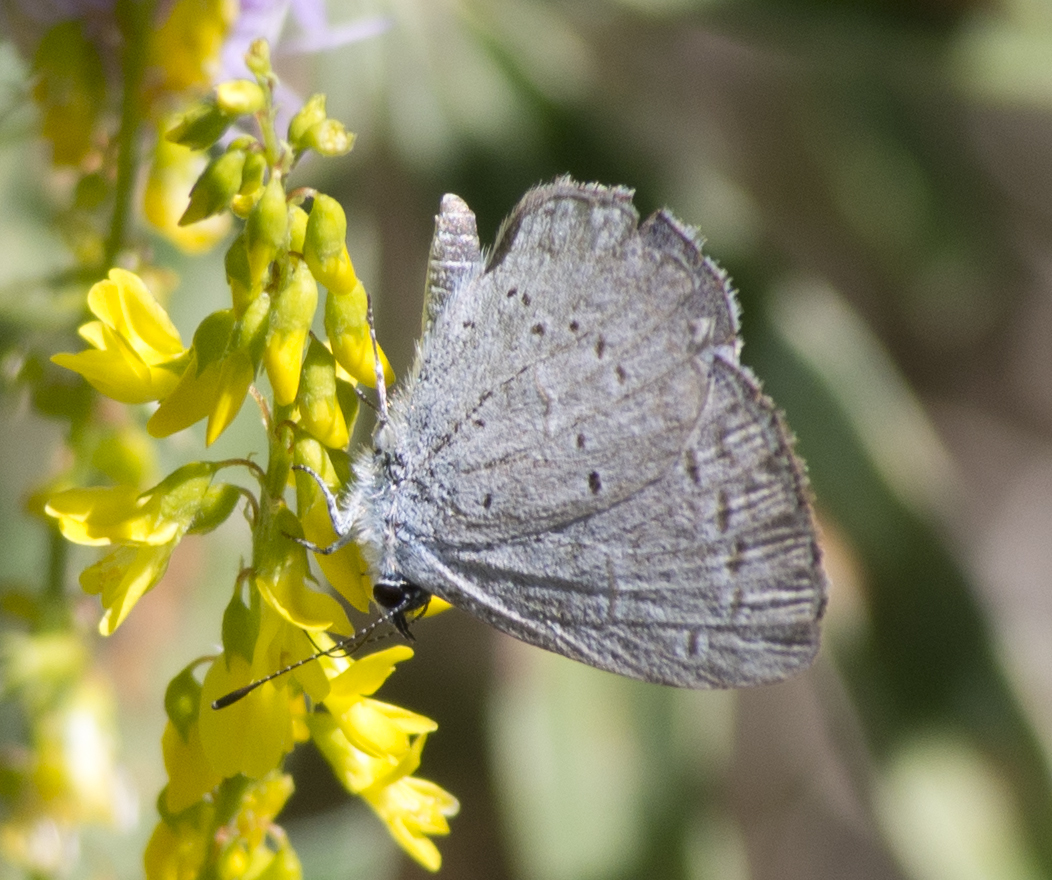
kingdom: Animalia
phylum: Arthropoda
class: Insecta
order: Lepidoptera
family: Lycaenidae
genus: Celastrina
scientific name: Celastrina ladon
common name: Spring azure
